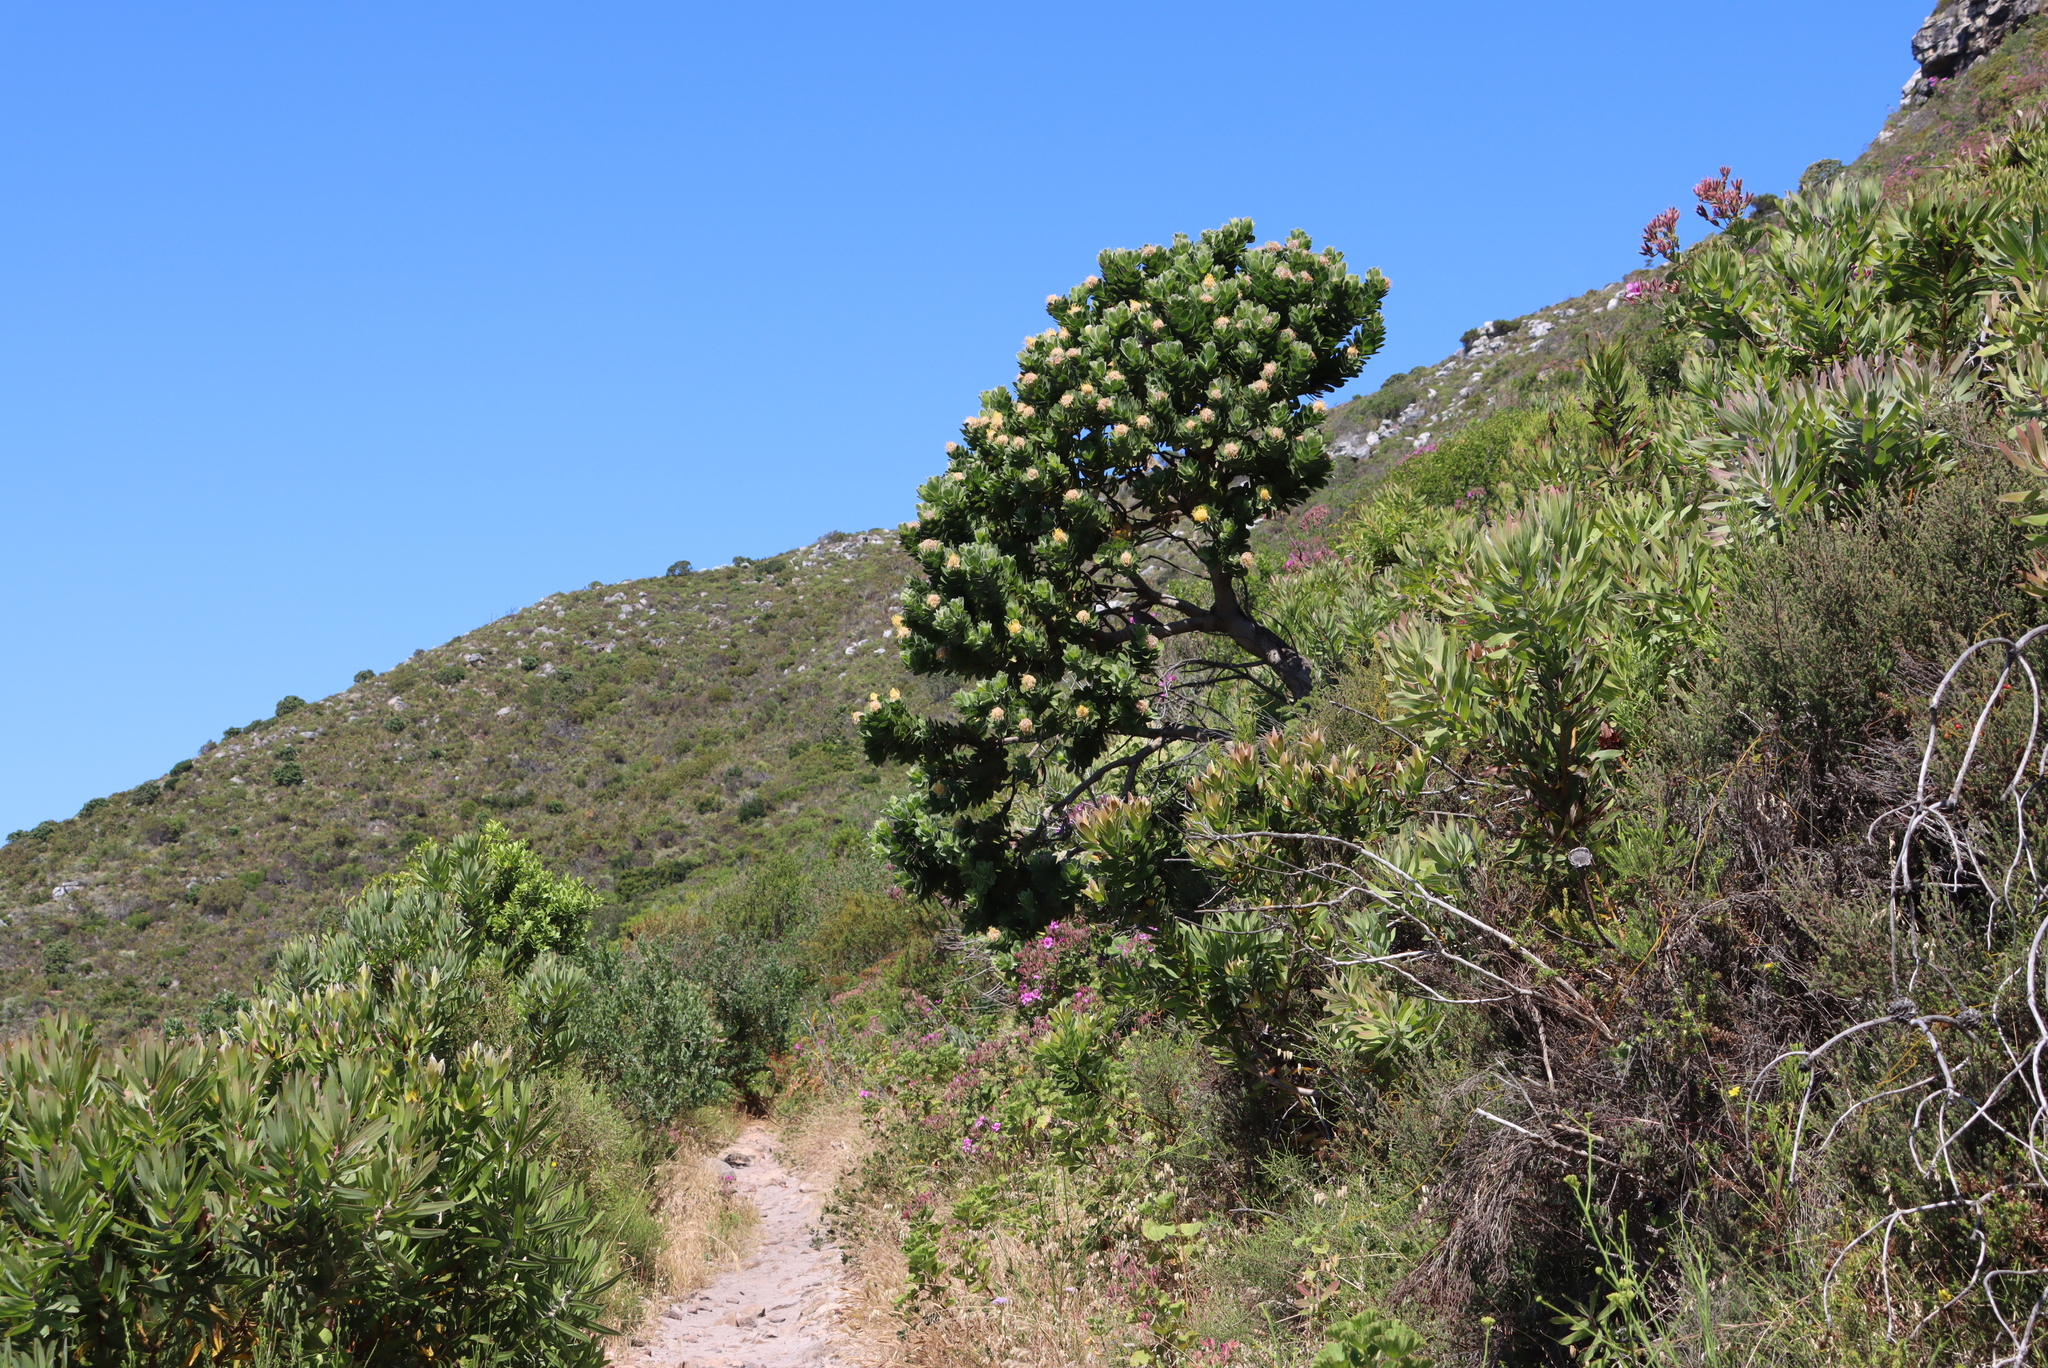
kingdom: Plantae
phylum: Tracheophyta
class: Magnoliopsida
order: Proteales
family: Proteaceae
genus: Leucospermum
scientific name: Leucospermum conocarpodendron
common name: Tree pincushion
